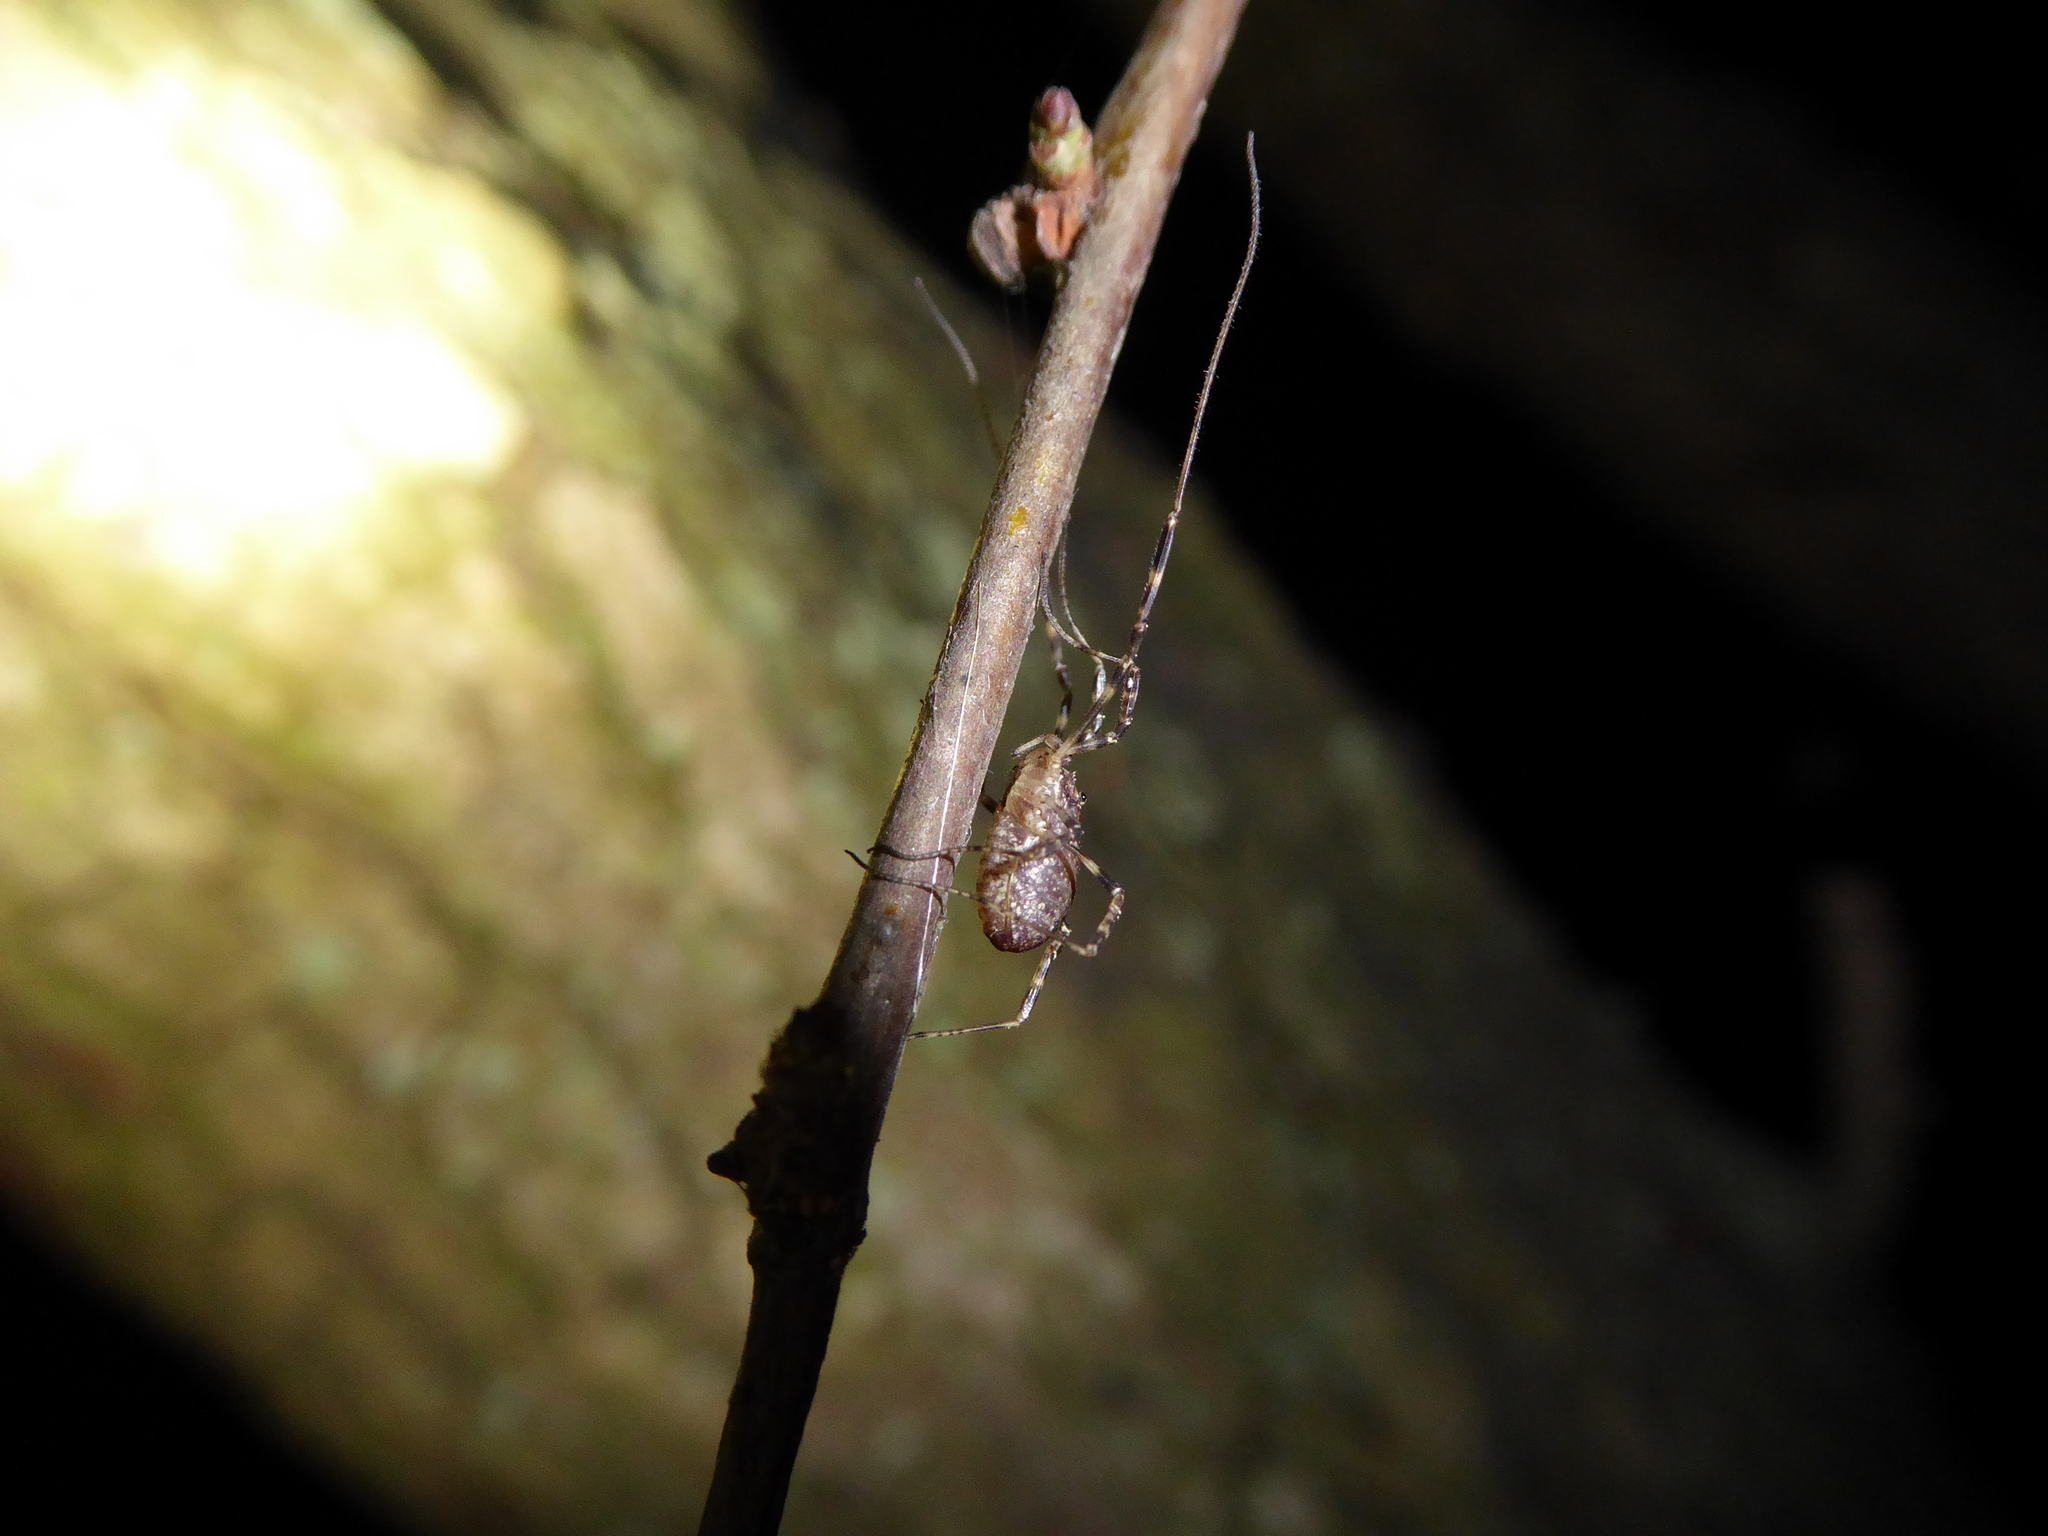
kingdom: Animalia
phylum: Arthropoda
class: Arachnida
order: Opiliones
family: Phalangiidae
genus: Paroligolophus
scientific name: Paroligolophus agrestis
